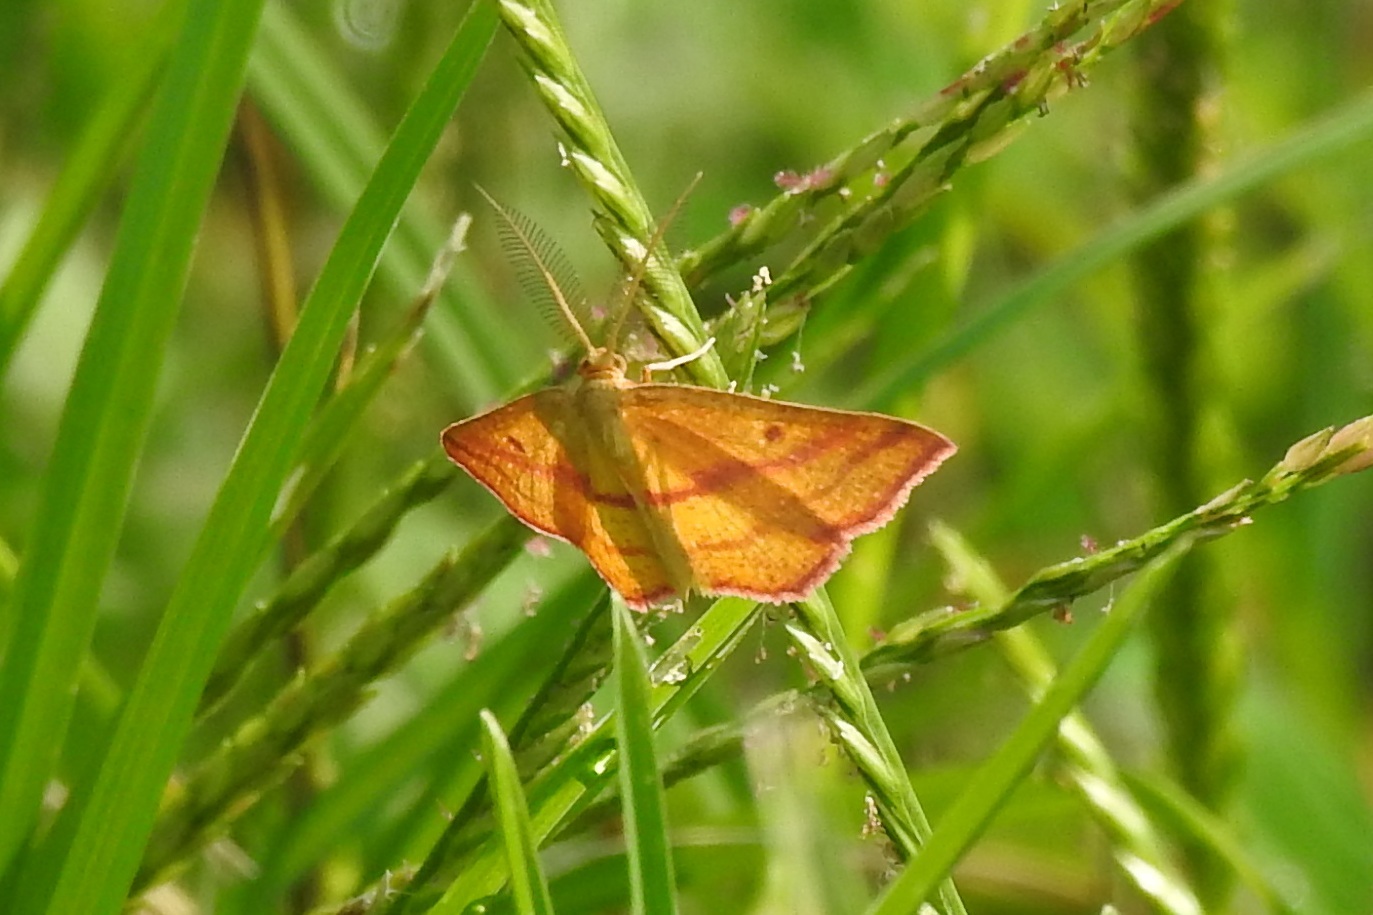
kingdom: Animalia
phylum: Arthropoda
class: Insecta
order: Lepidoptera
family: Geometridae
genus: Haematopis
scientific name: Haematopis grataria
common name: Chickweed geometer
